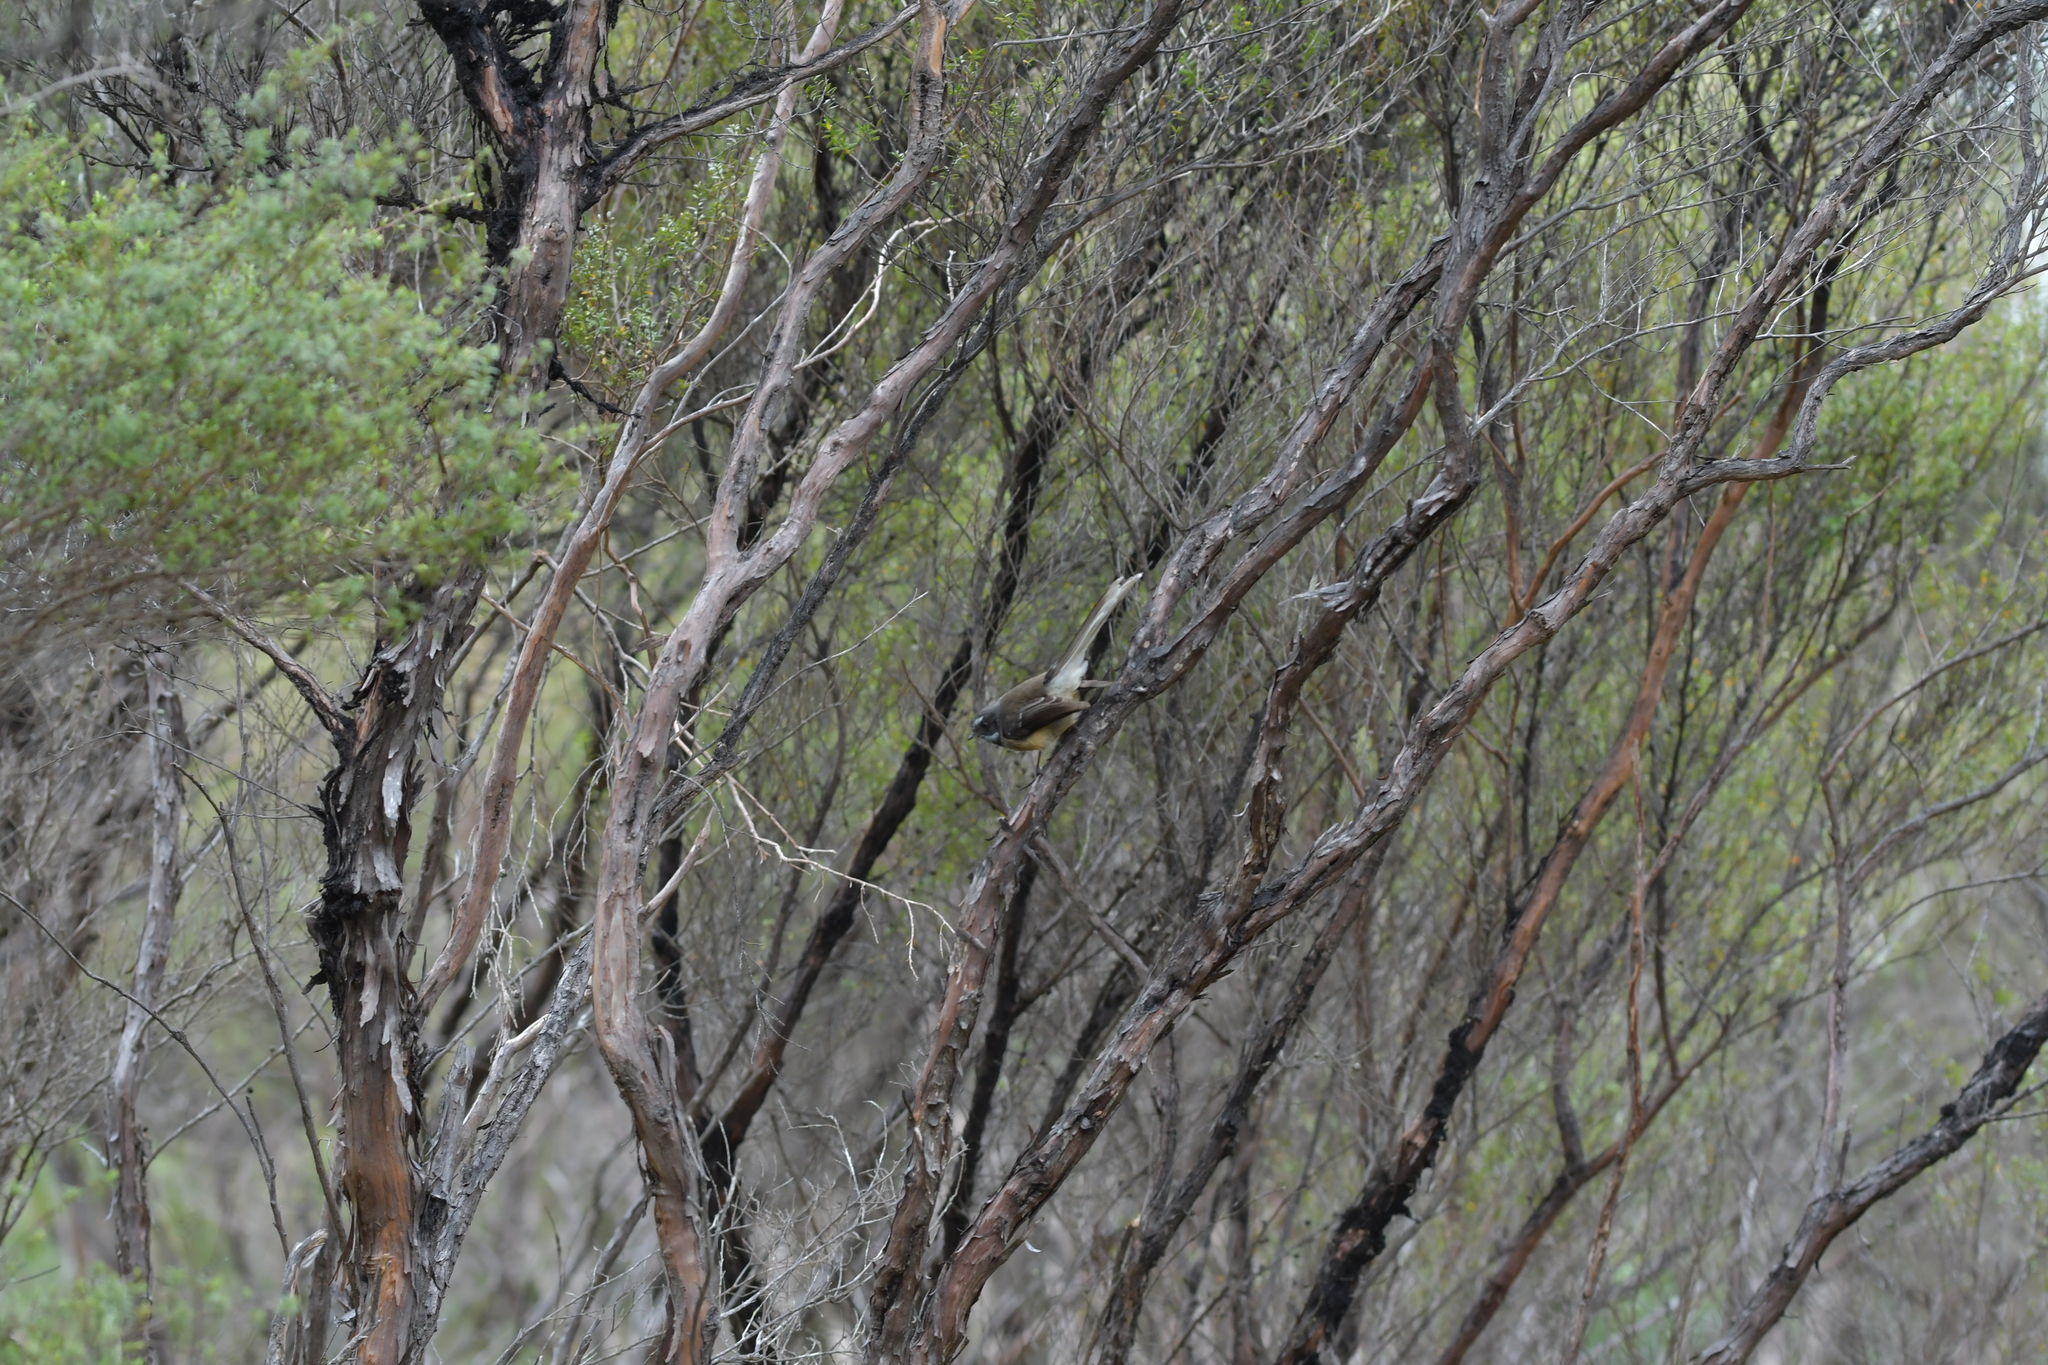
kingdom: Animalia
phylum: Chordata
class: Aves
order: Passeriformes
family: Rhipiduridae
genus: Rhipidura
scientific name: Rhipidura fuliginosa
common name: New zealand fantail
